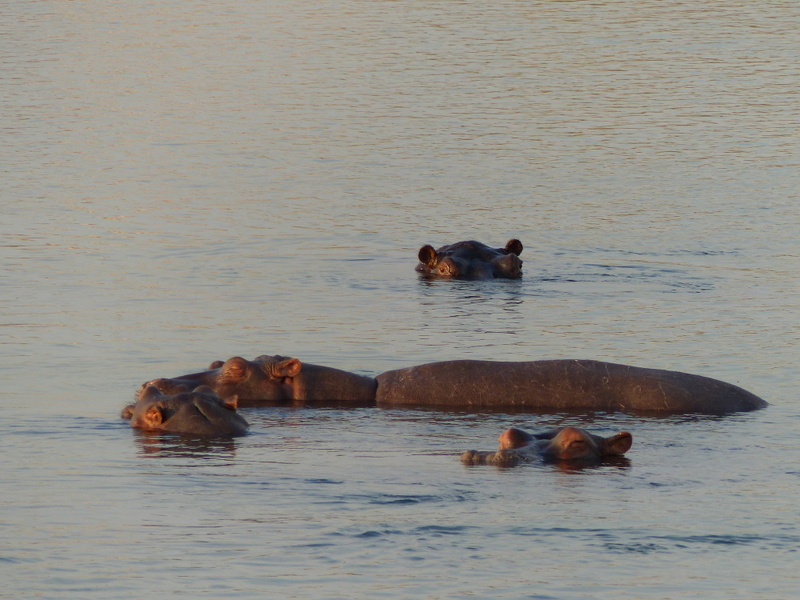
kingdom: Animalia
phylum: Chordata
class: Mammalia
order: Artiodactyla
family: Hippopotamidae
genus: Hippopotamus
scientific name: Hippopotamus amphibius
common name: Common hippopotamus
